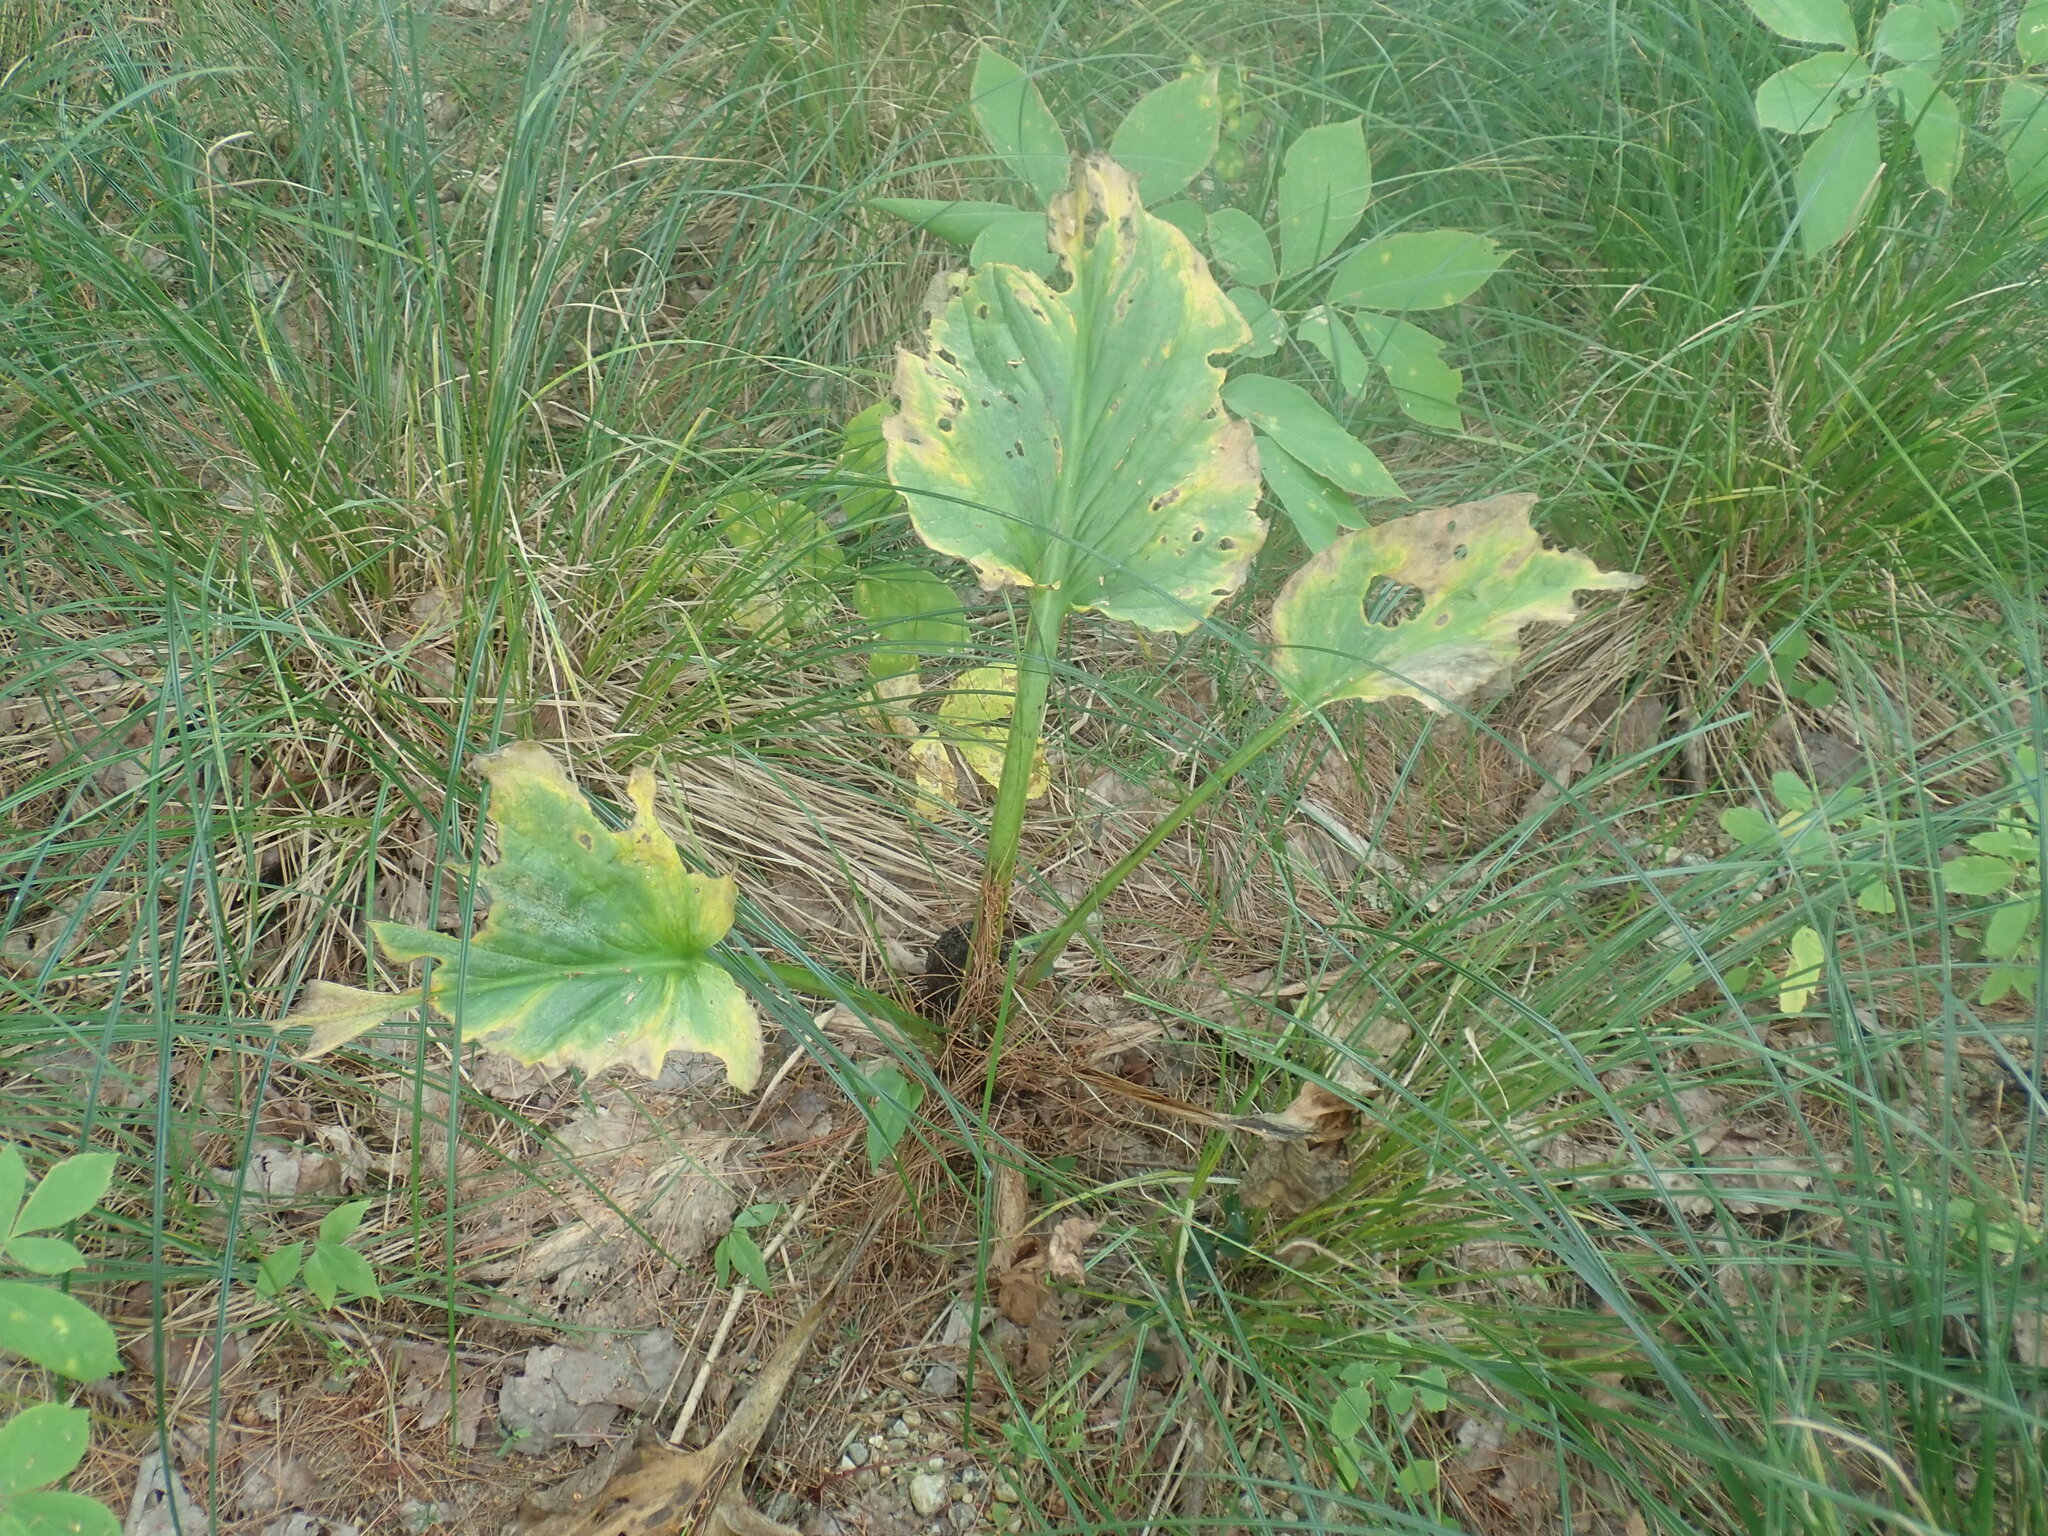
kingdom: Plantae
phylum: Tracheophyta
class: Liliopsida
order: Alismatales
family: Araceae
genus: Symplocarpus
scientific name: Symplocarpus foetidus
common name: Eastern skunk cabbage
